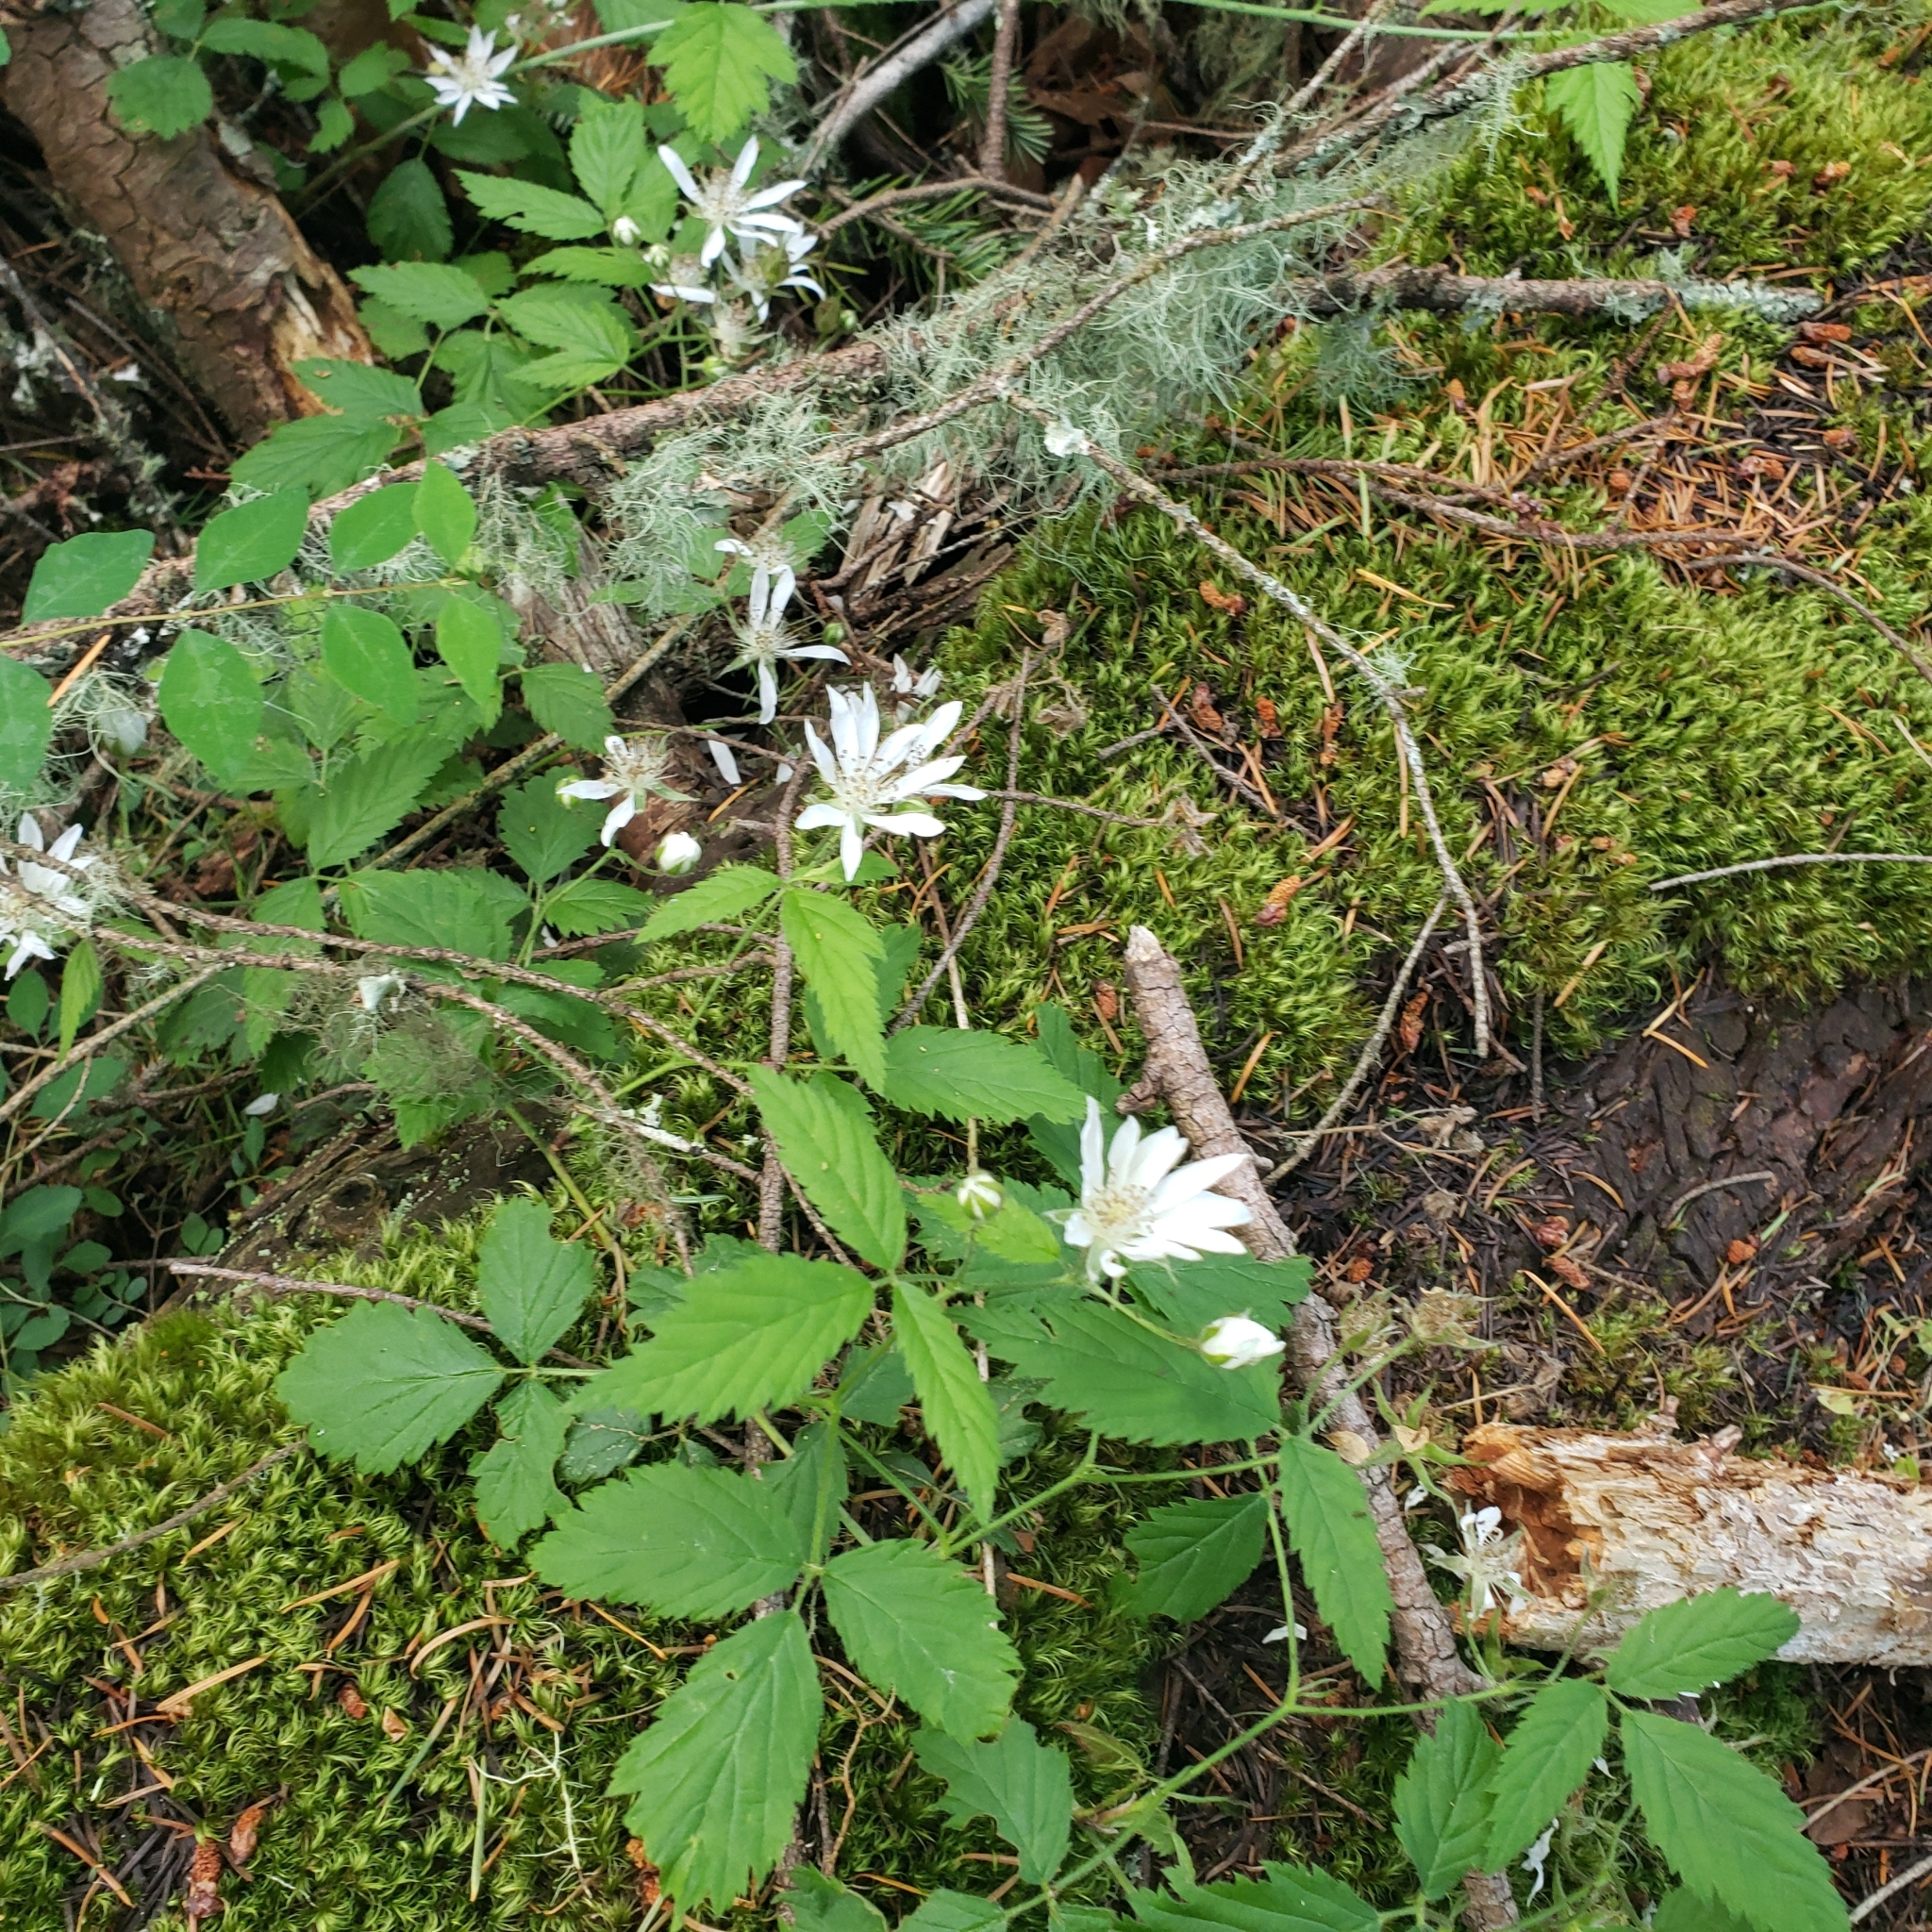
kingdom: Plantae
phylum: Tracheophyta
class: Magnoliopsida
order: Rosales
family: Rosaceae
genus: Rubus
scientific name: Rubus ursinus
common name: Pacific blackberry
